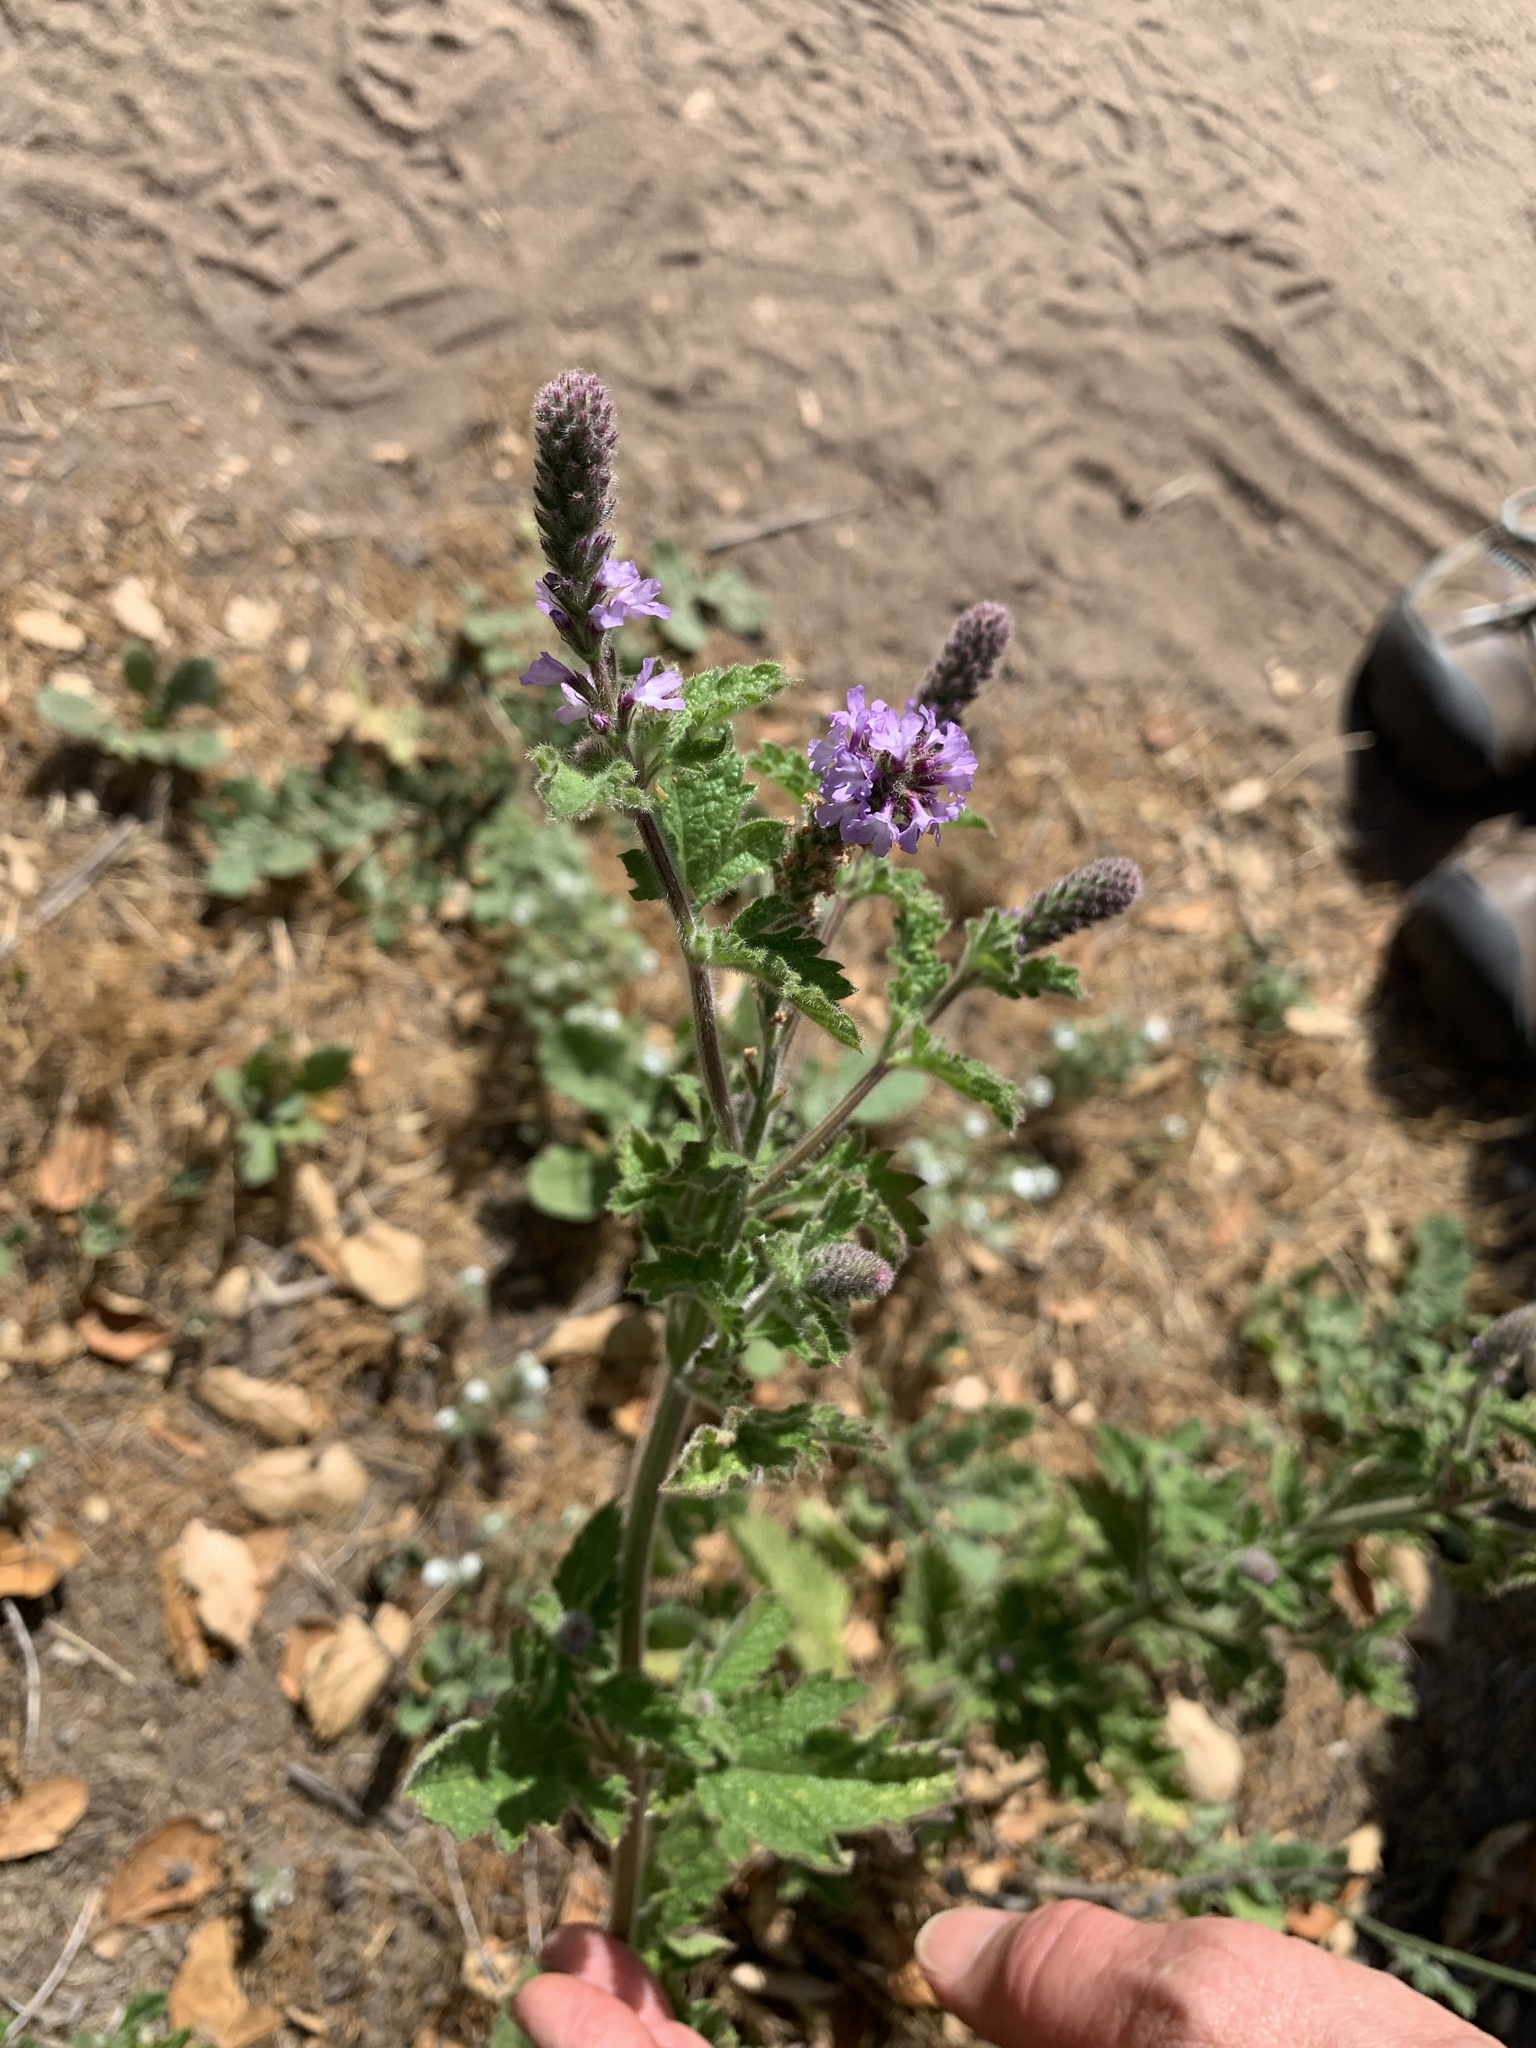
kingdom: Plantae
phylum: Tracheophyta
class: Magnoliopsida
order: Lamiales
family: Verbenaceae
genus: Verbena
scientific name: Verbena lasiostachys
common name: Vervain
